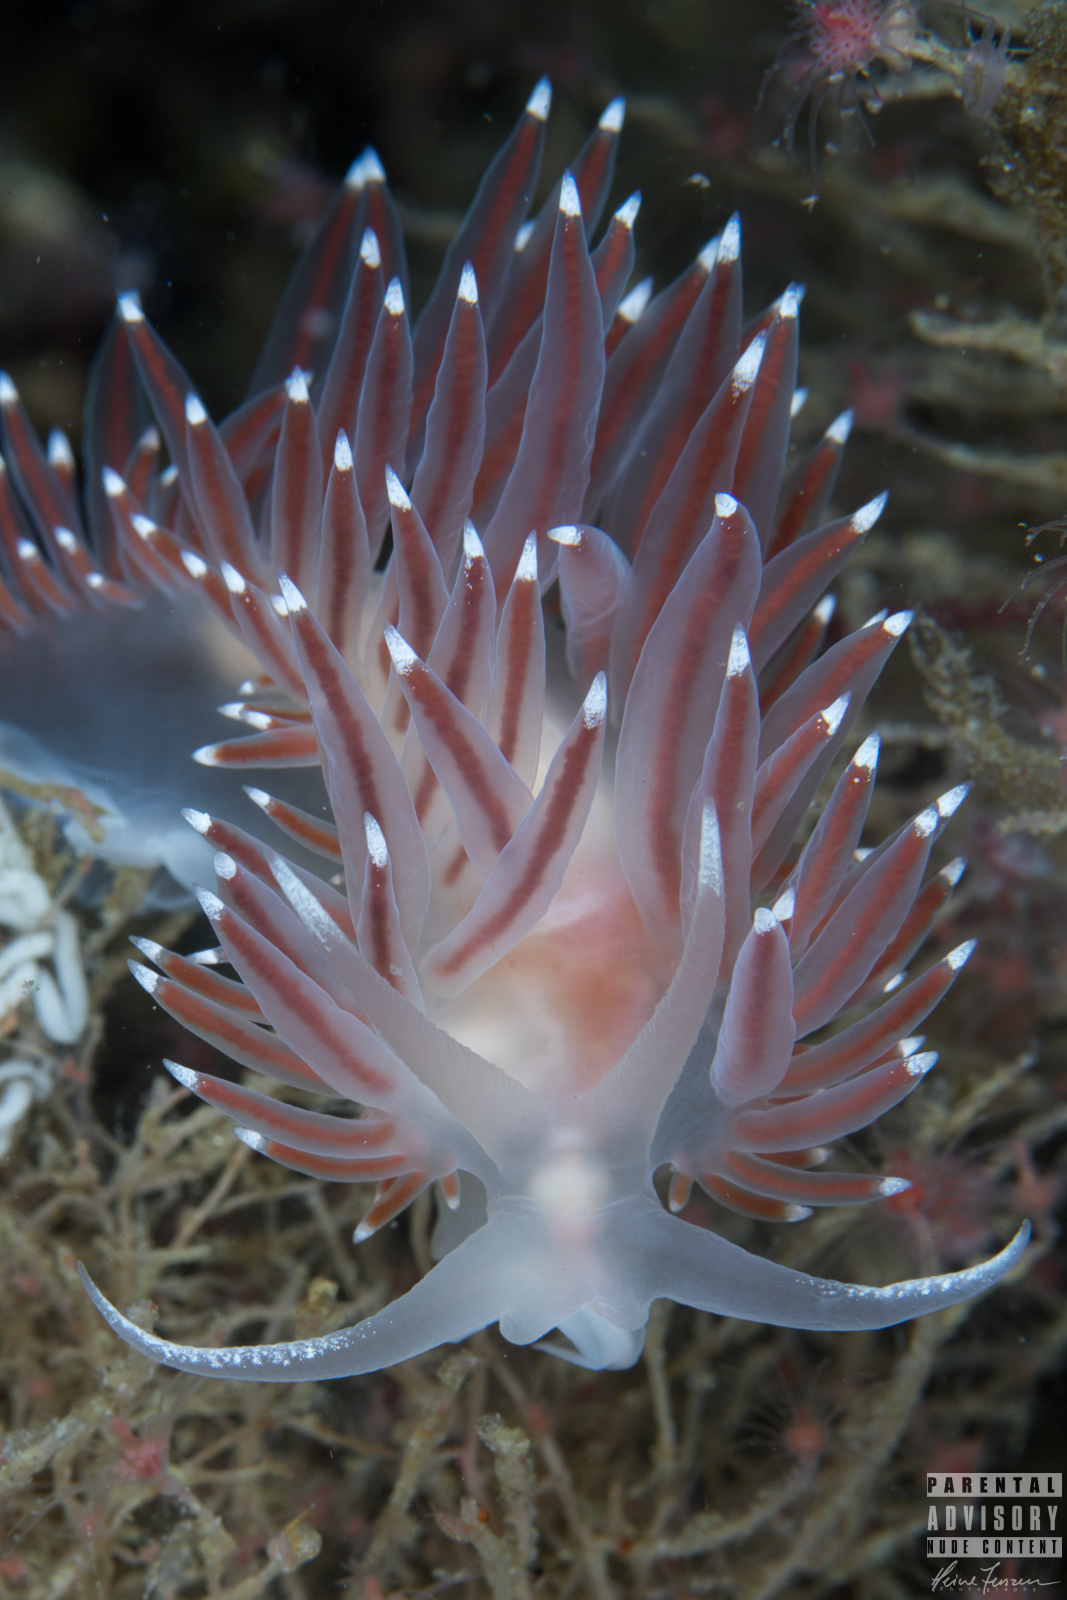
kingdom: Animalia
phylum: Mollusca
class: Gastropoda
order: Nudibranchia
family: Coryphellidae
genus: Coryphella
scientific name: Coryphella nobilis
